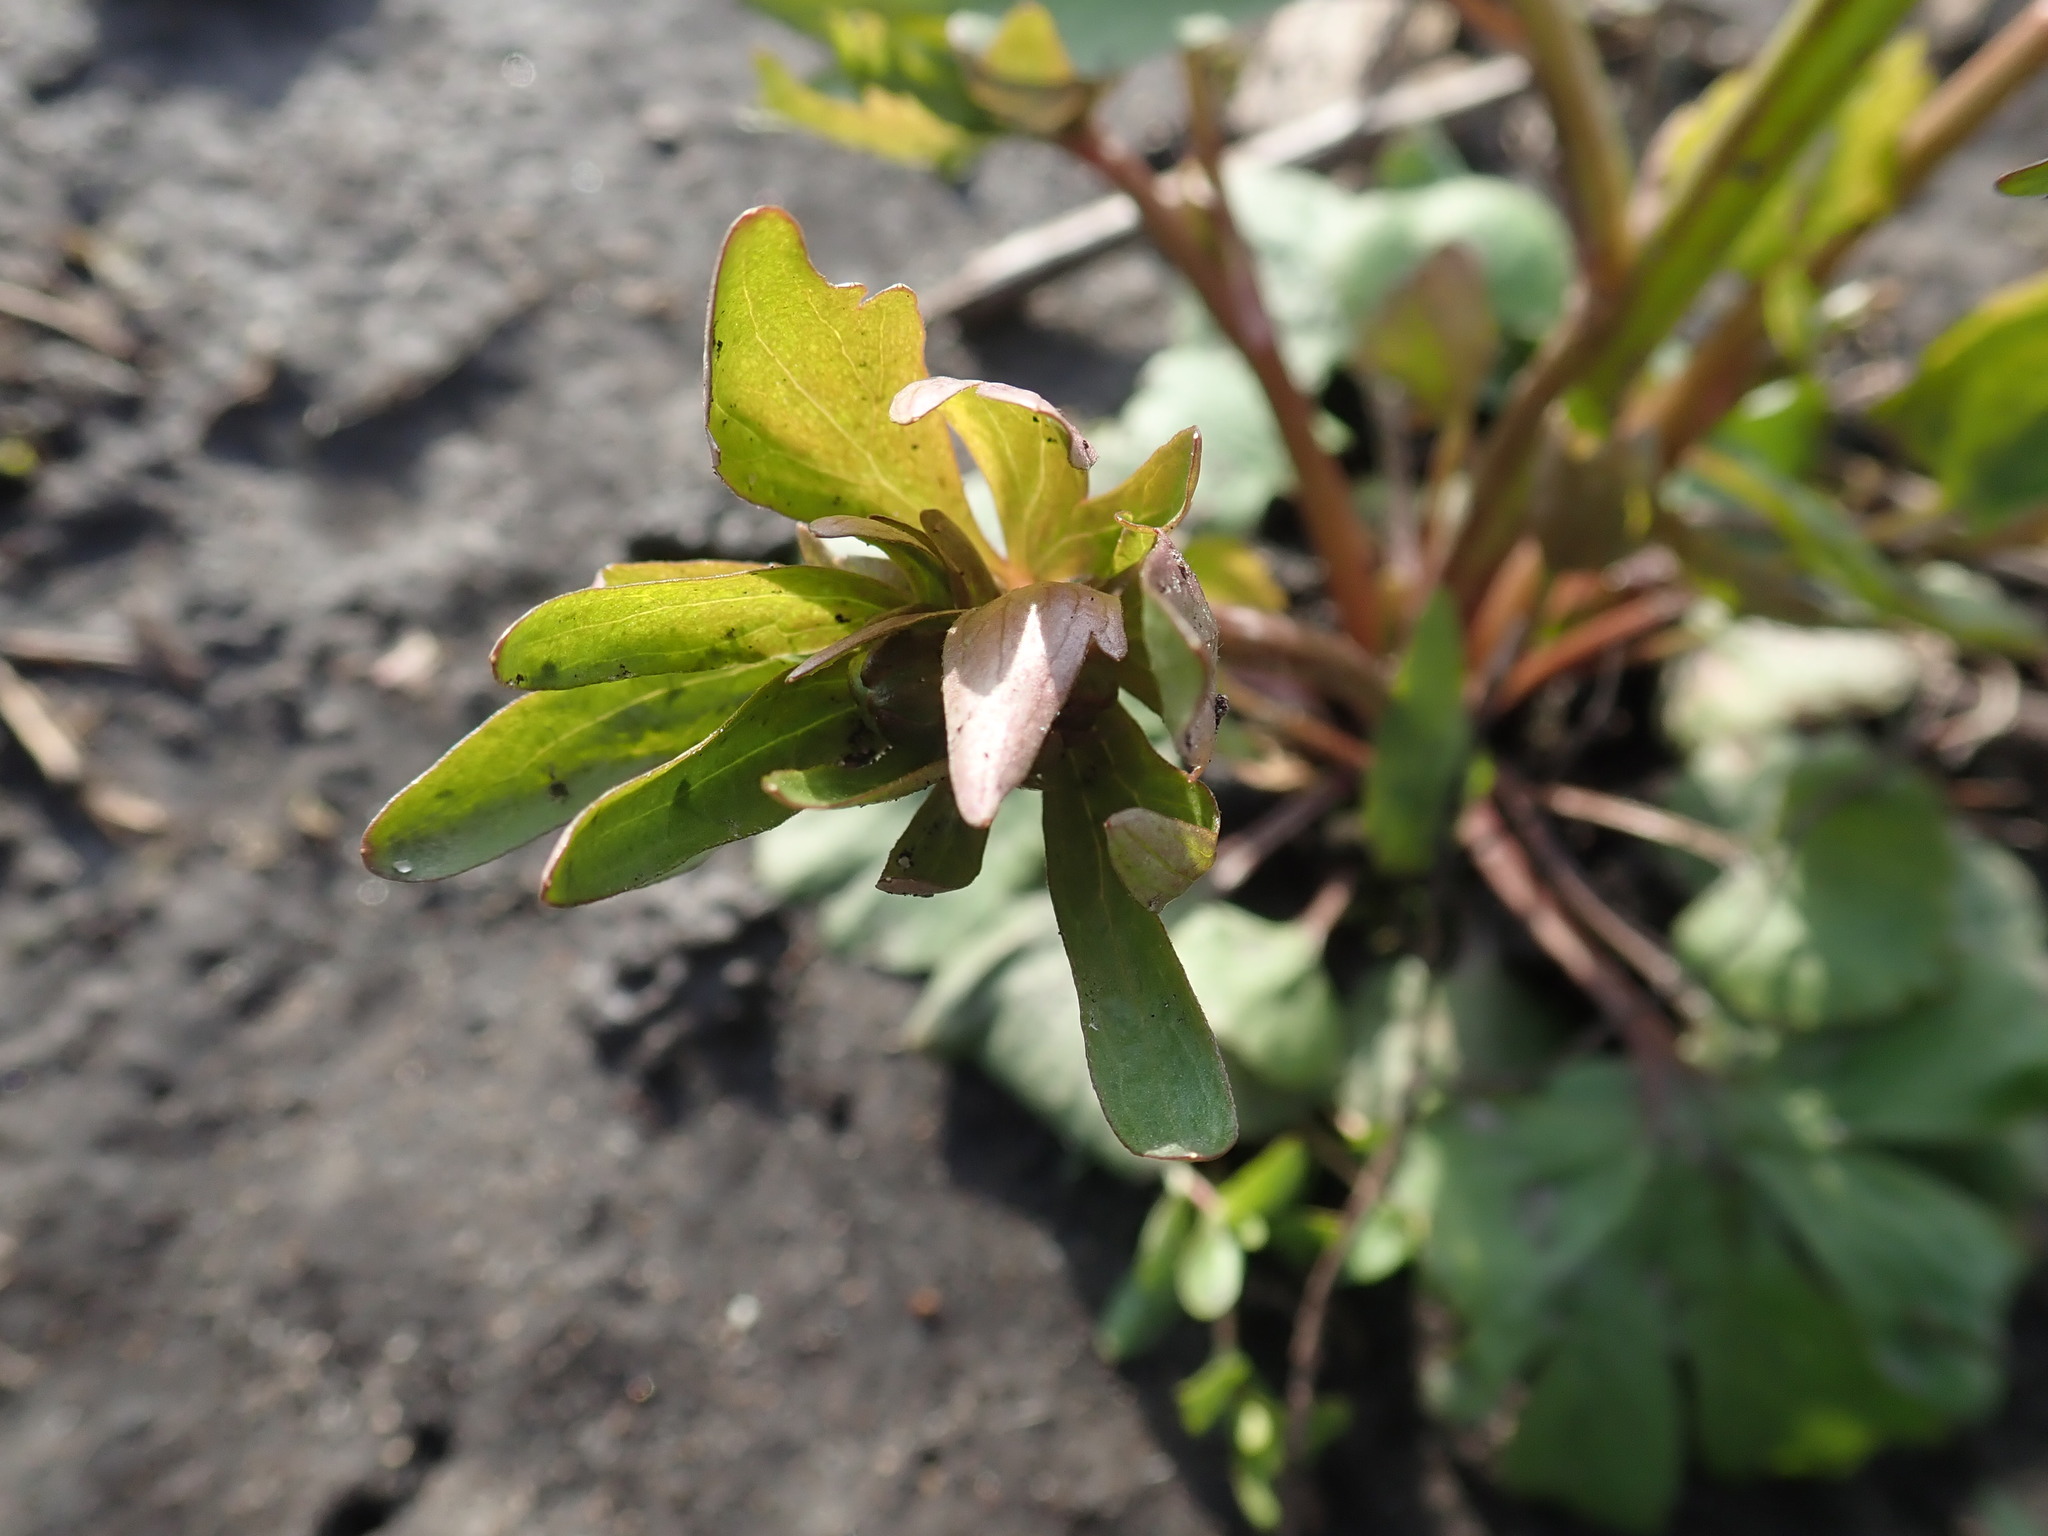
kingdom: Plantae
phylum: Tracheophyta
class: Magnoliopsida
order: Ranunculales
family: Ranunculaceae
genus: Ranunculus
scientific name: Ranunculus abortivus
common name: Early wood buttercup
